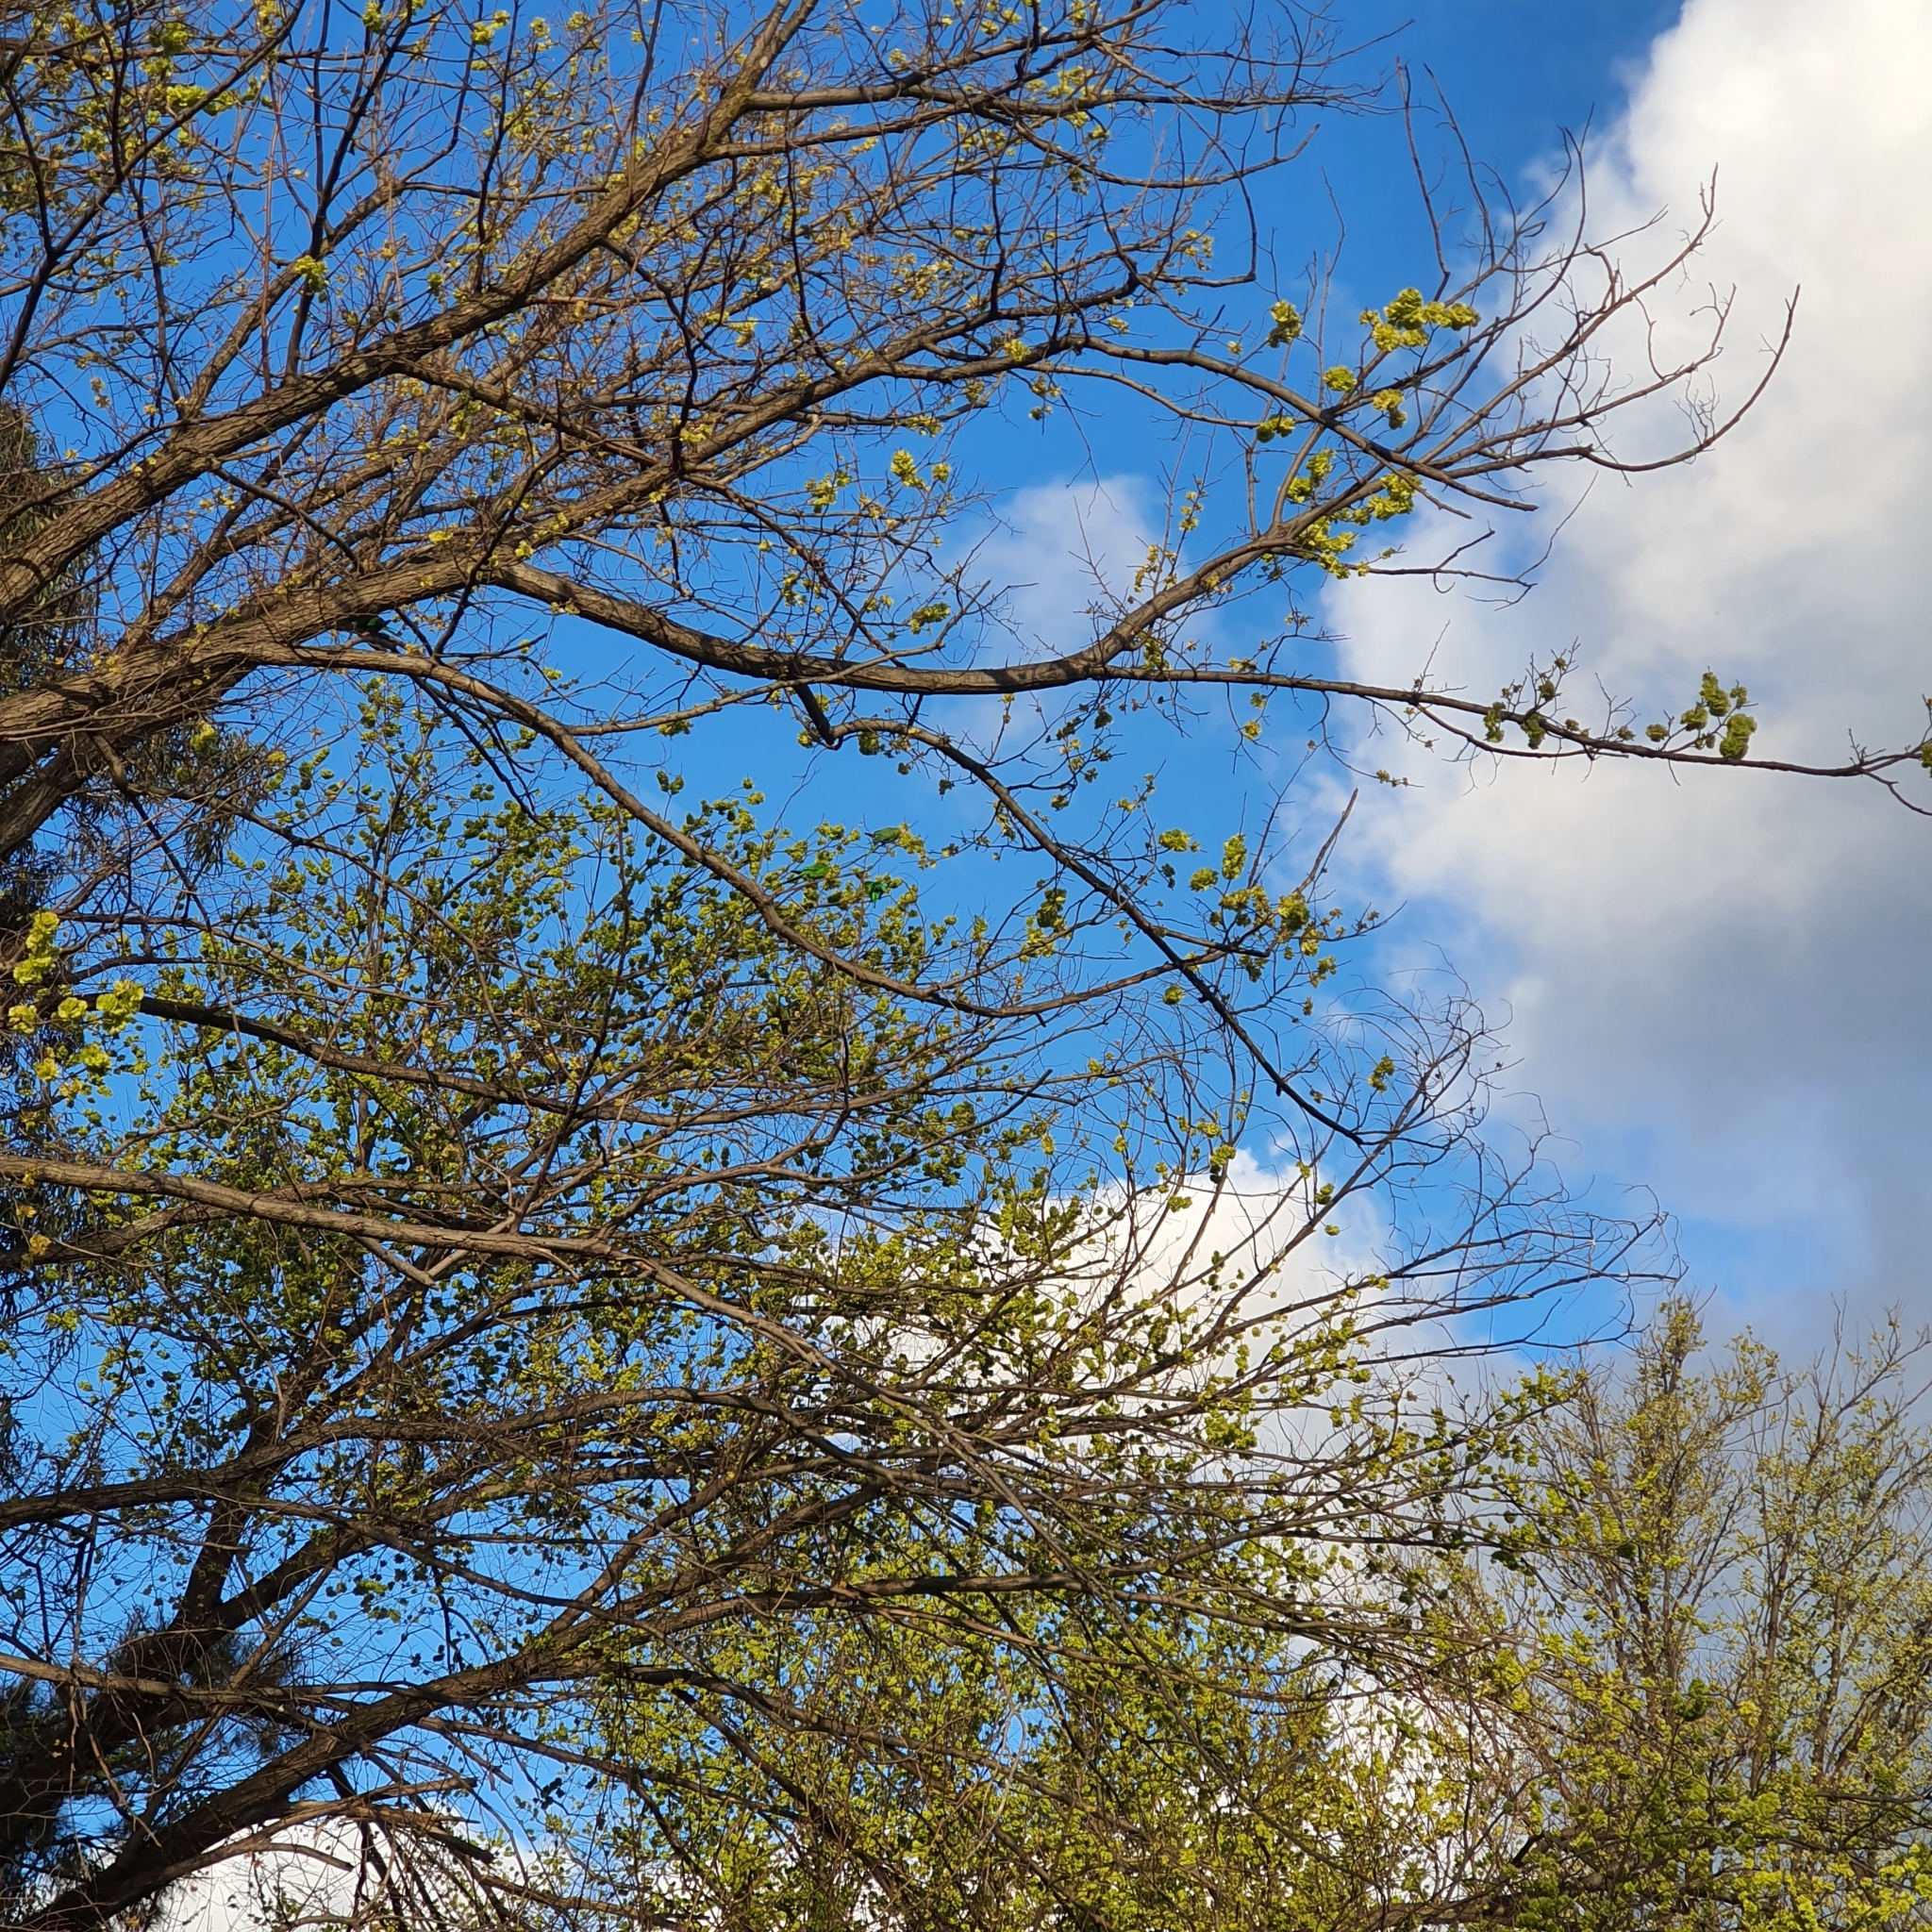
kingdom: Animalia
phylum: Chordata
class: Aves
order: Psittaciformes
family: Psittacidae
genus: Polytelis
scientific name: Polytelis swainsonii
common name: Superb parrot
